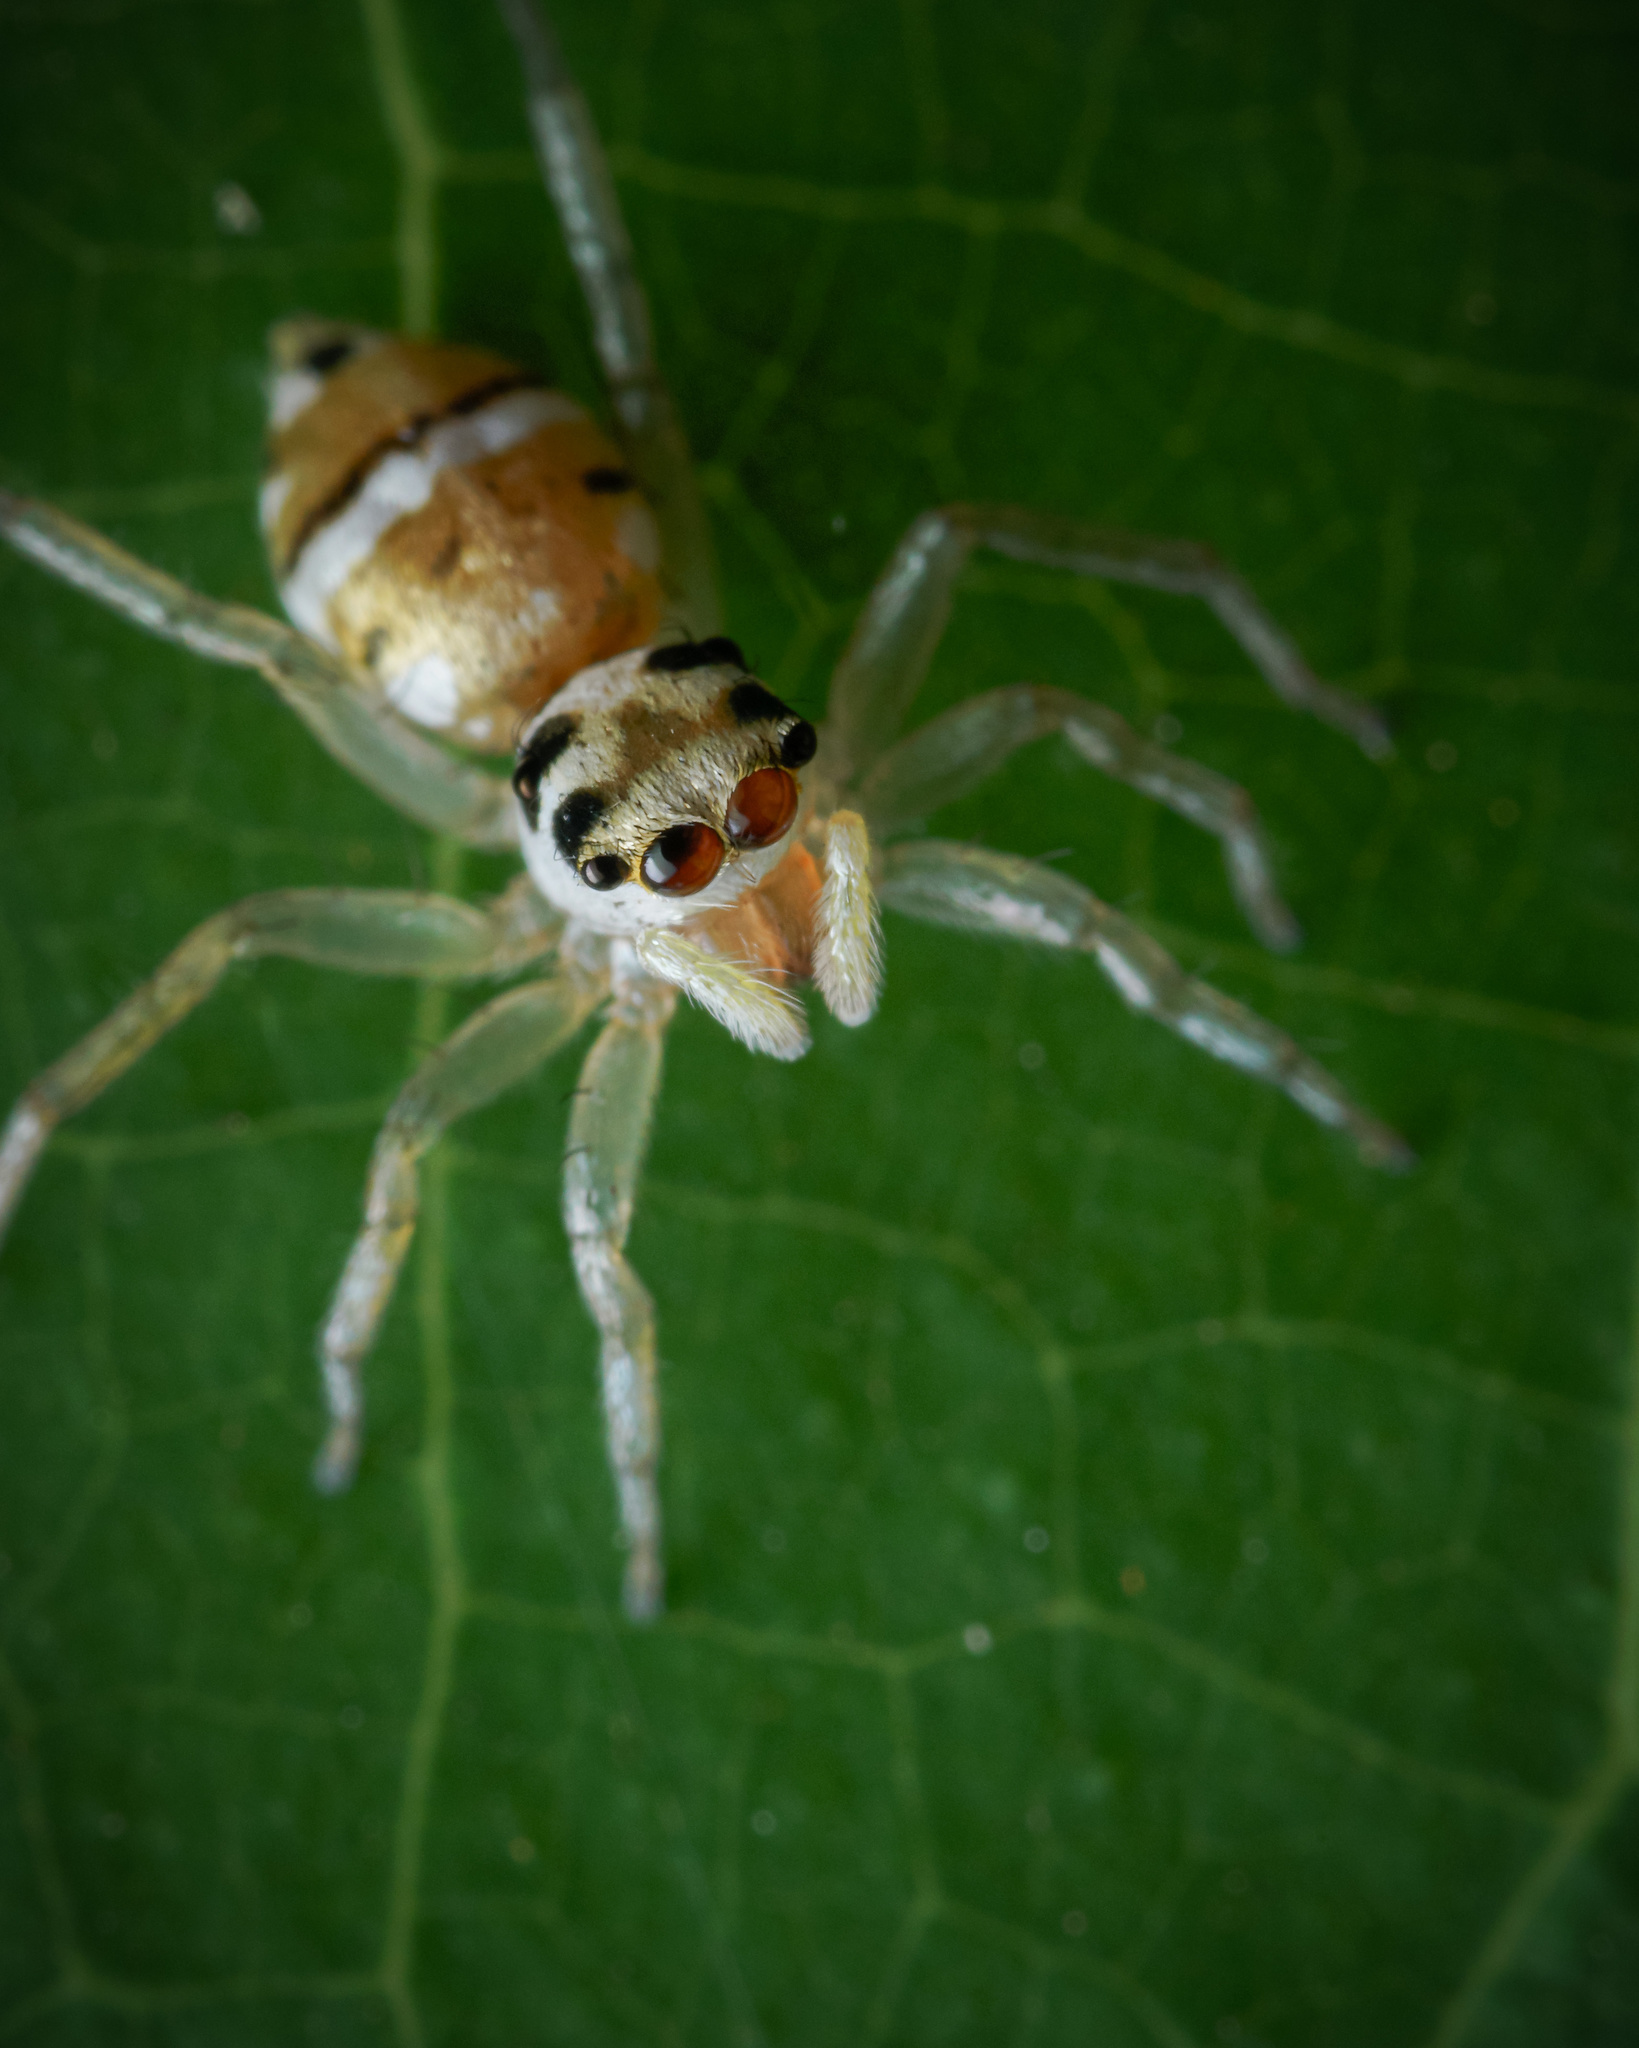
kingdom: Animalia
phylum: Arthropoda
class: Arachnida
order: Araneae
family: Salticidae
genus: Phintella
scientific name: Phintella piatensis
